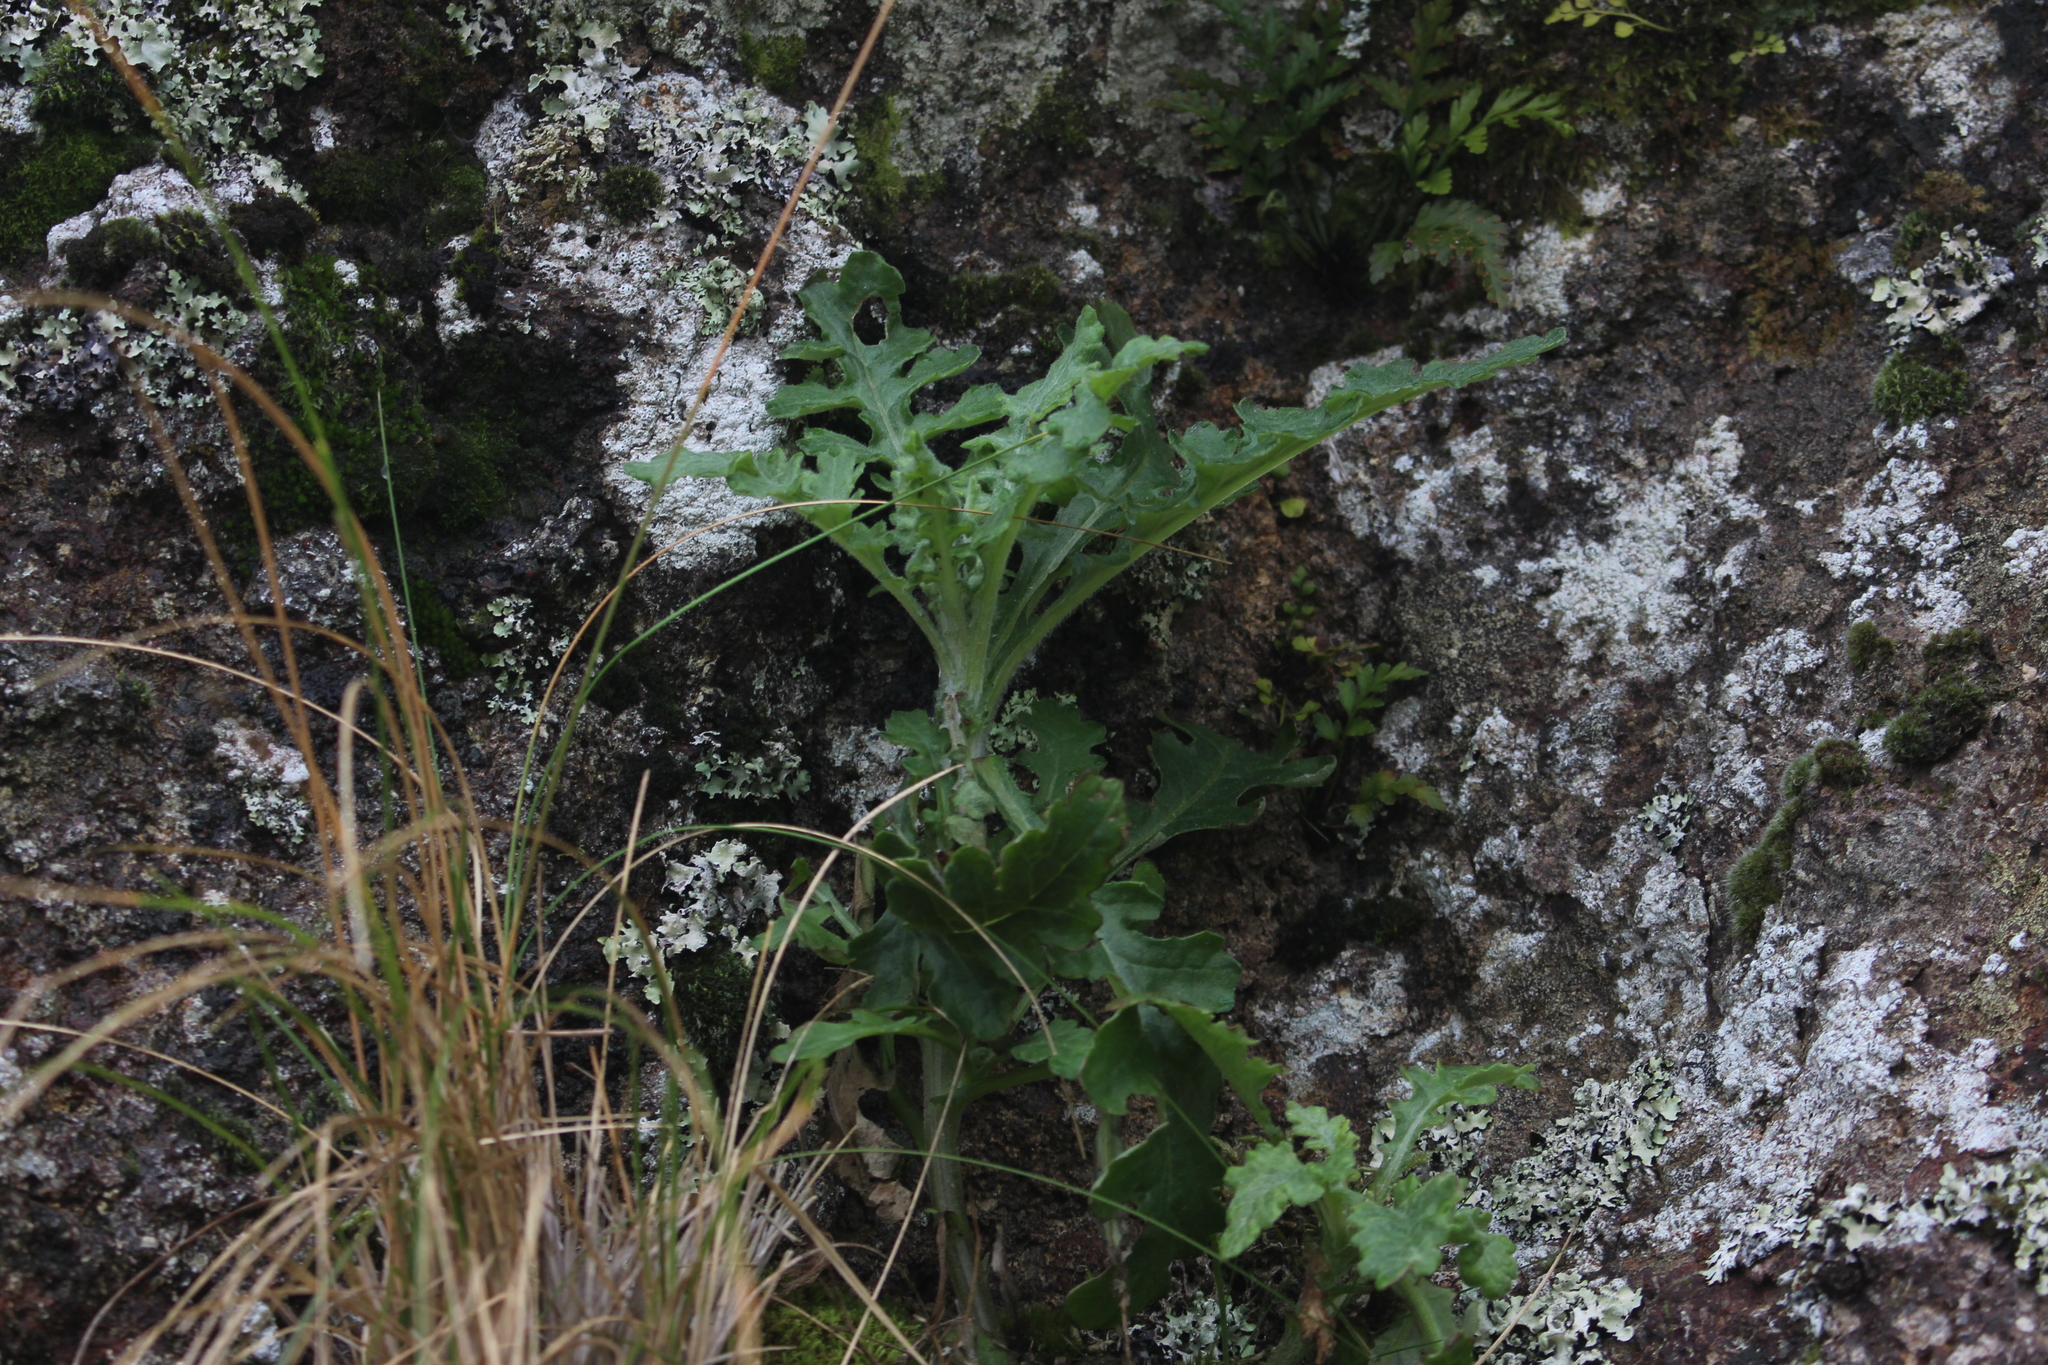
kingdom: Plantae
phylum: Tracheophyta
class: Magnoliopsida
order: Asterales
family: Asteraceae
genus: Senecio
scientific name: Senecio glomeratus
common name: Cutleaf burnweed
